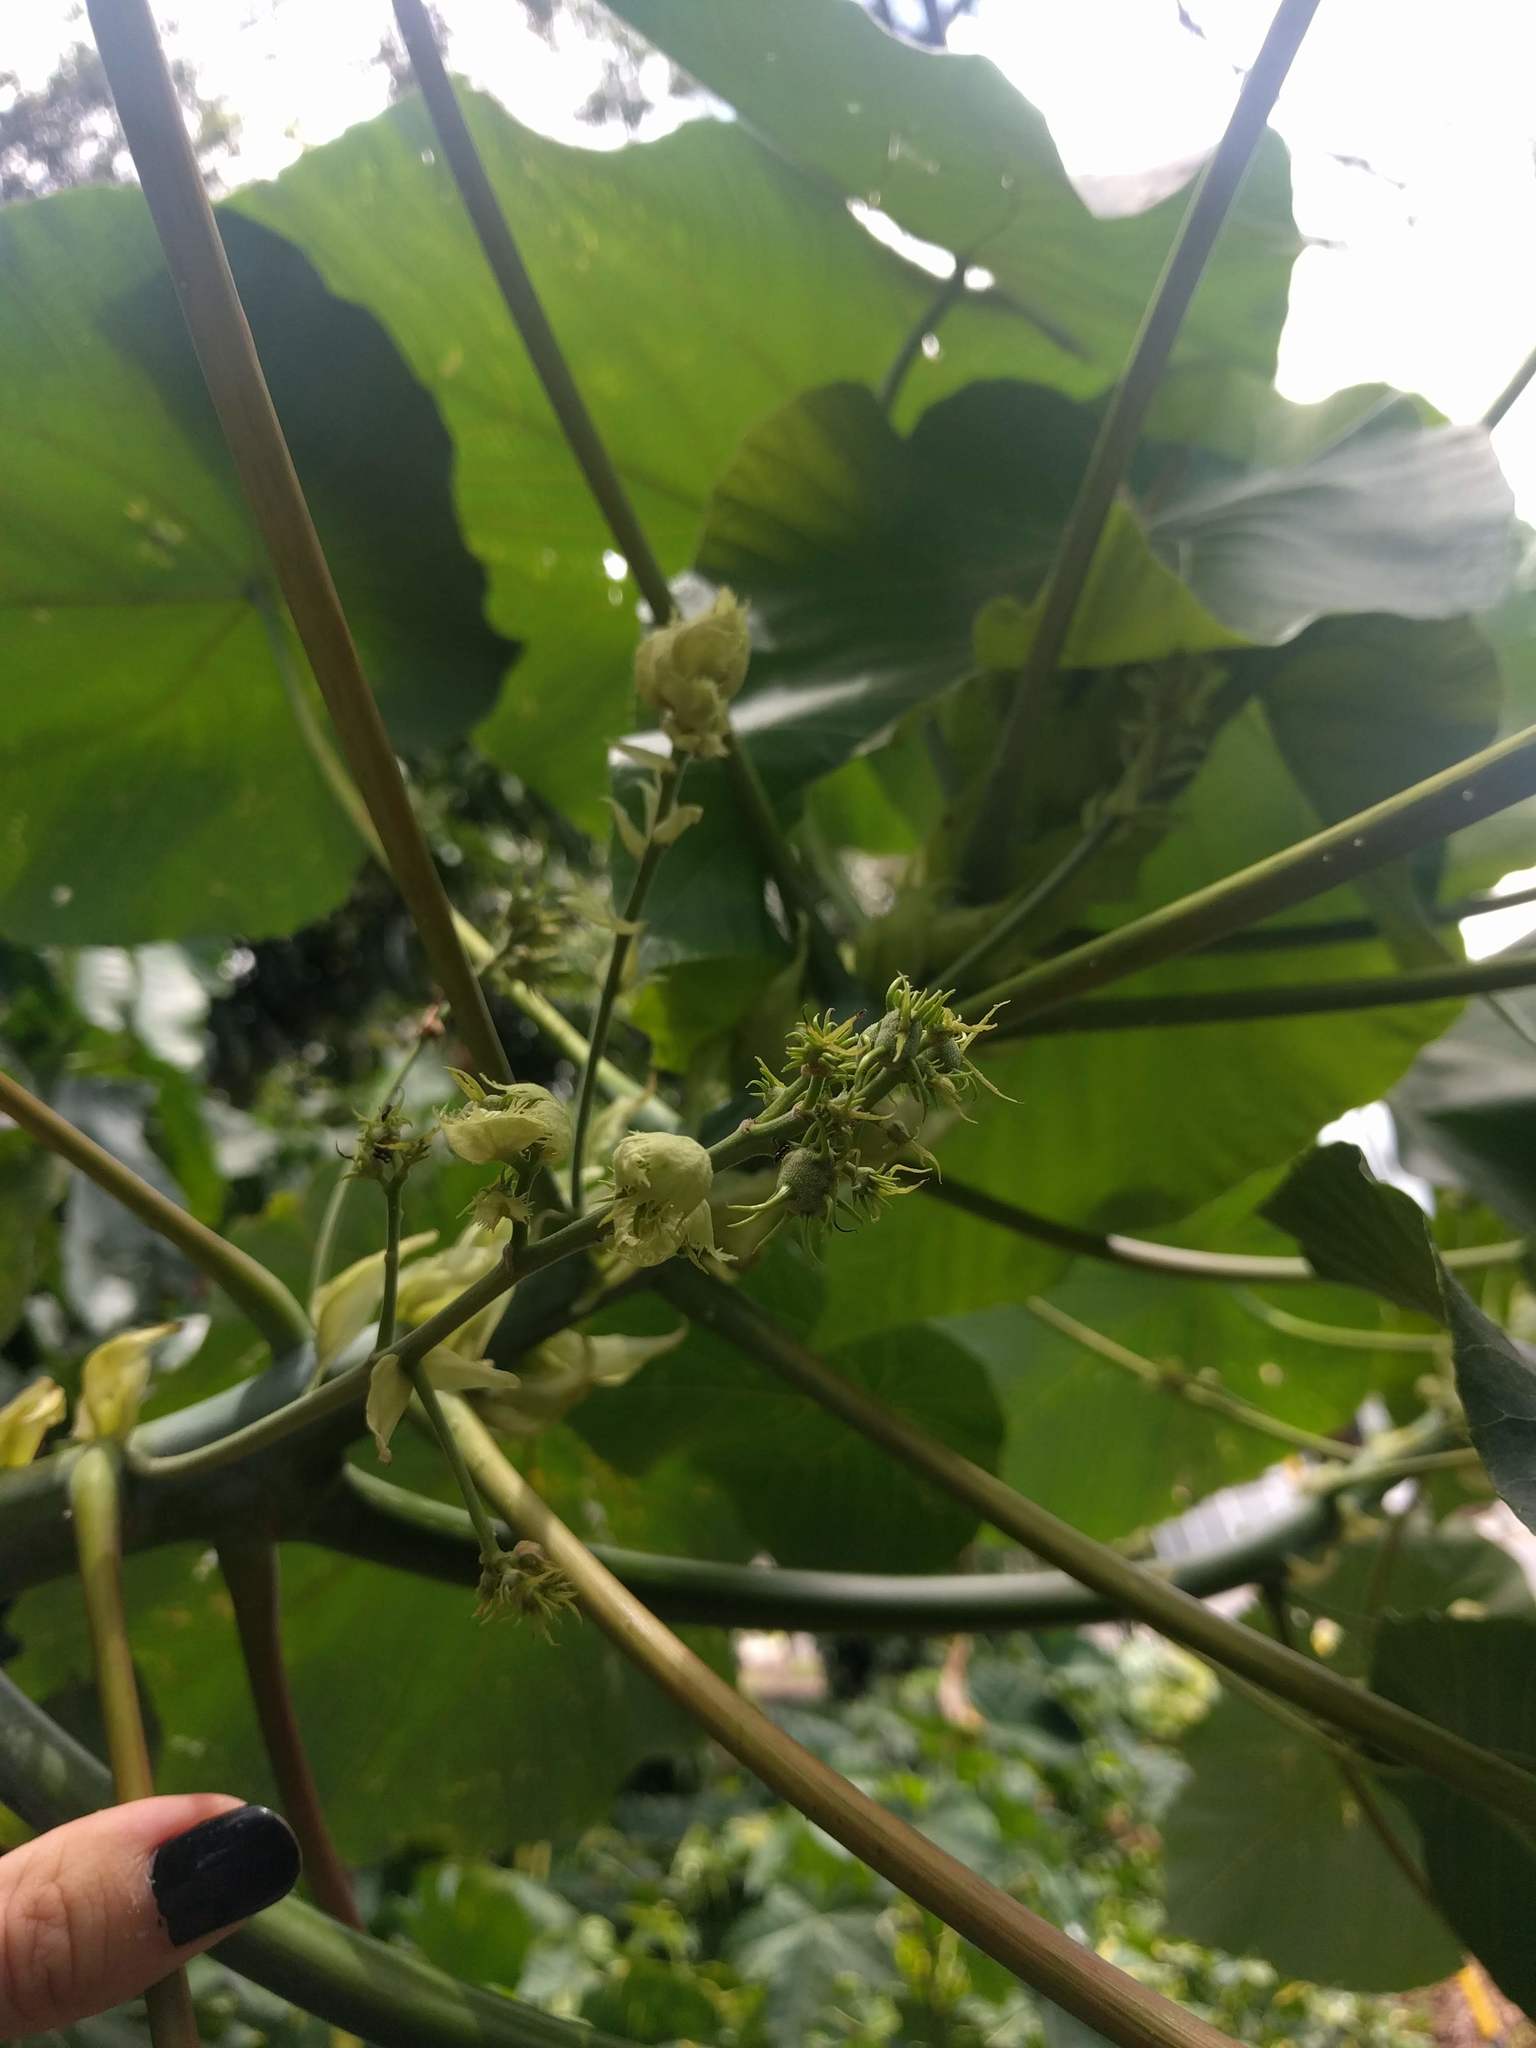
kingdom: Plantae
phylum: Tracheophyta
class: Magnoliopsida
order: Malpighiales
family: Euphorbiaceae
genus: Macaranga
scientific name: Macaranga tanarius
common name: Parasol leaf tree
